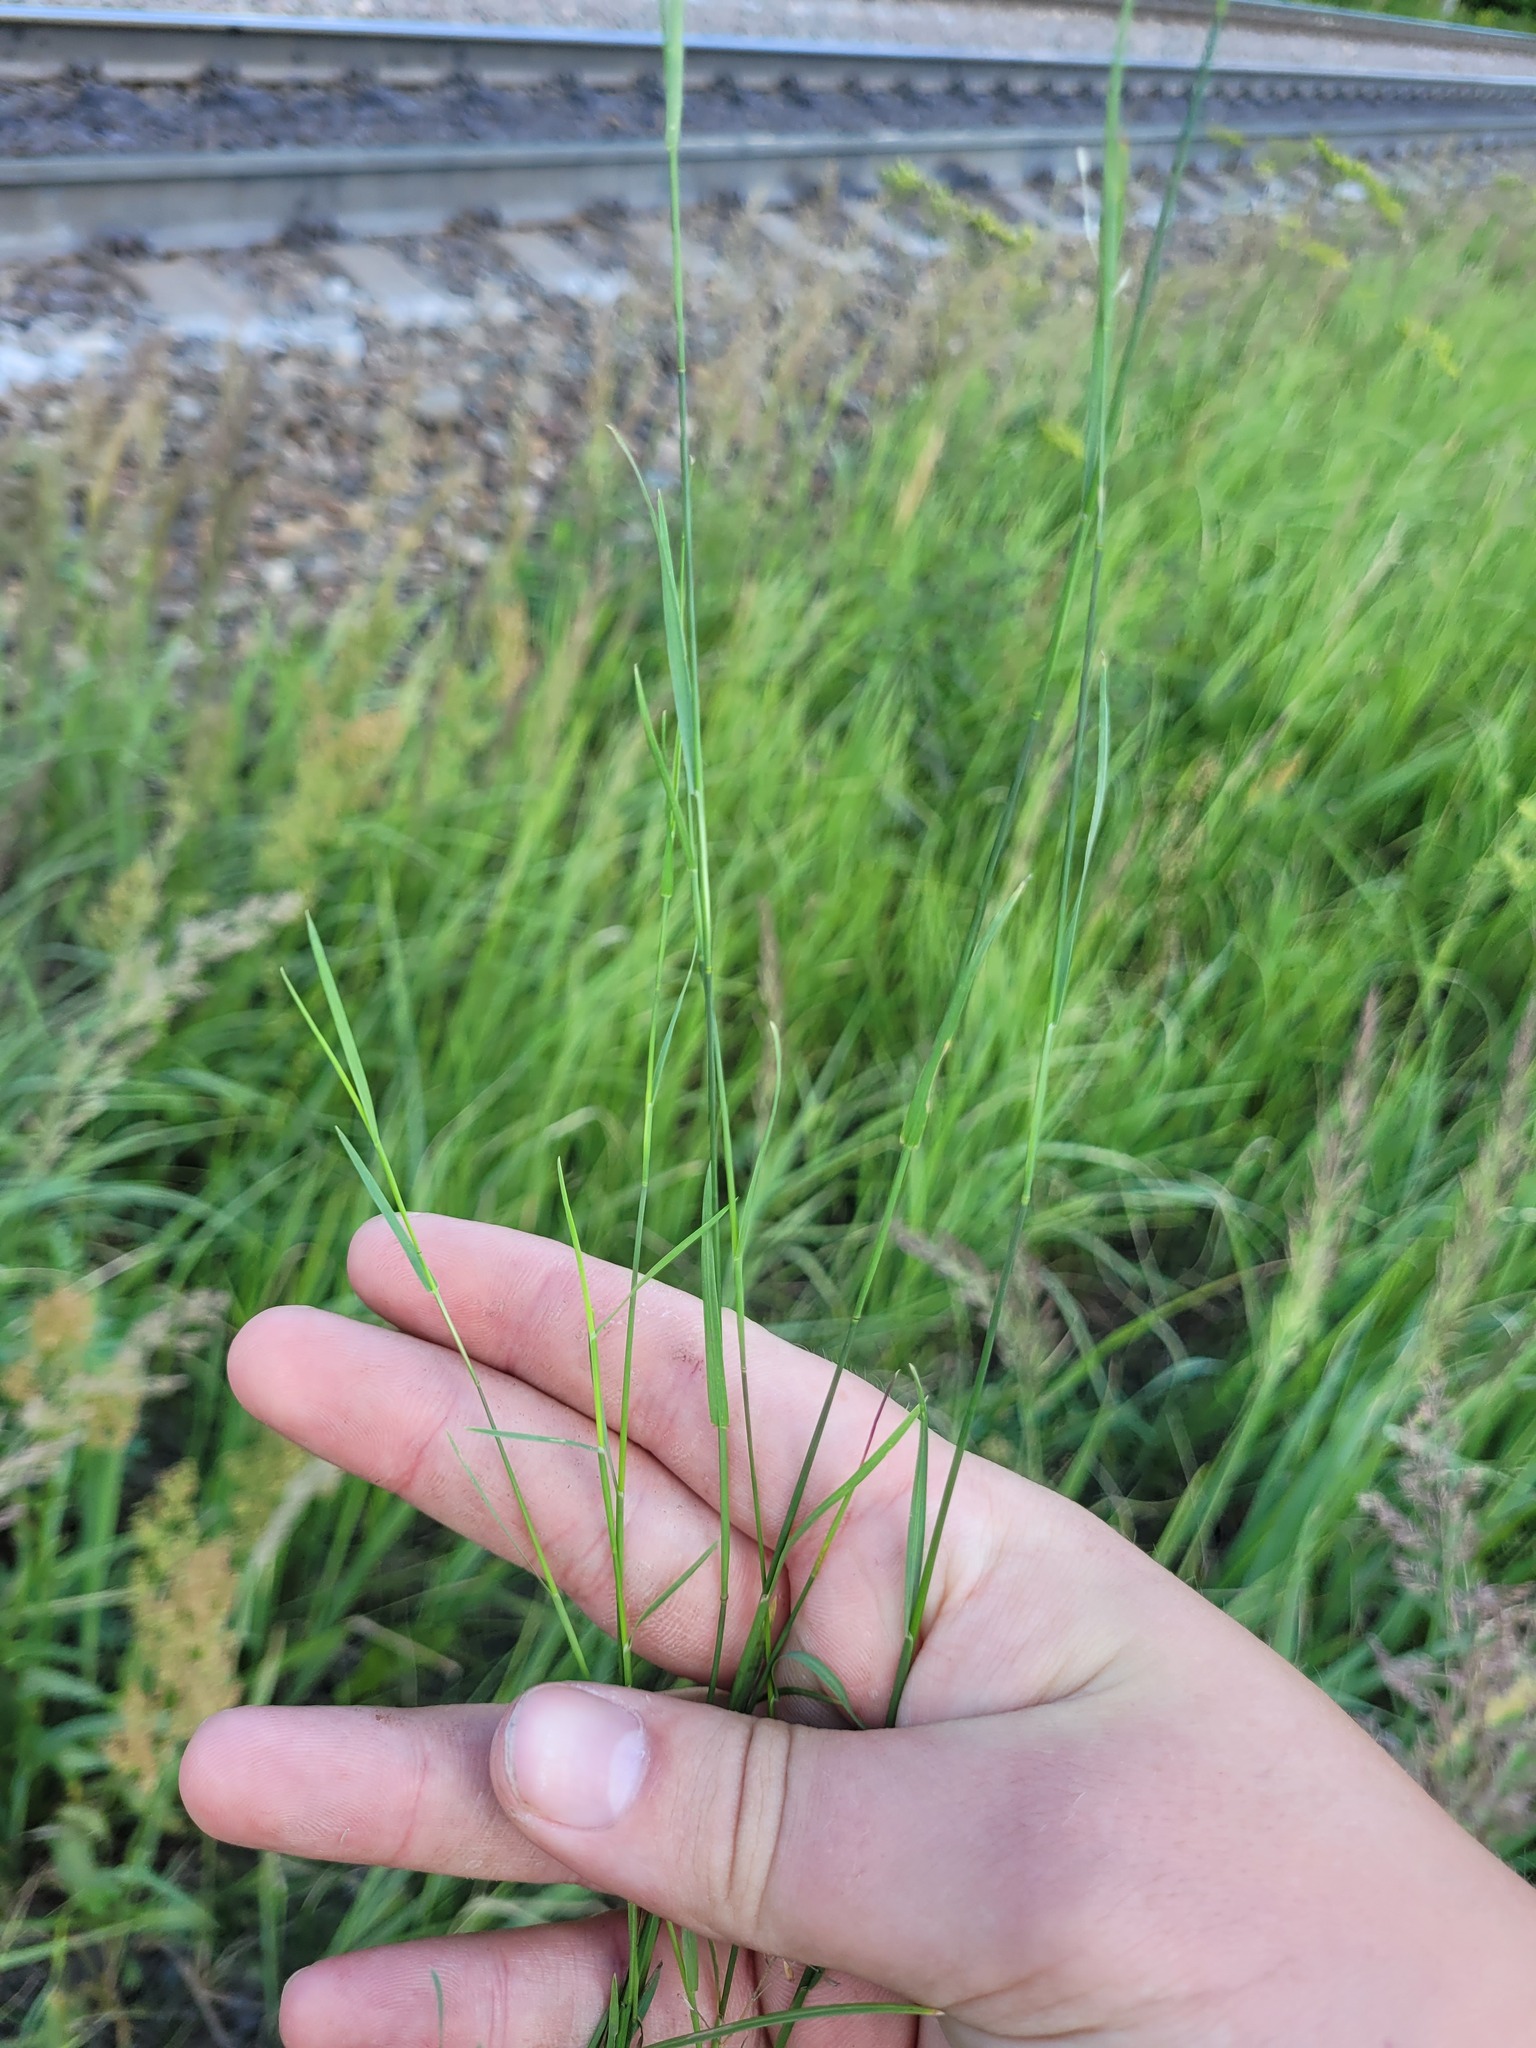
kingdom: Plantae
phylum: Tracheophyta
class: Liliopsida
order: Poales
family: Poaceae
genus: Poa
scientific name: Poa compressa
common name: Canada bluegrass
